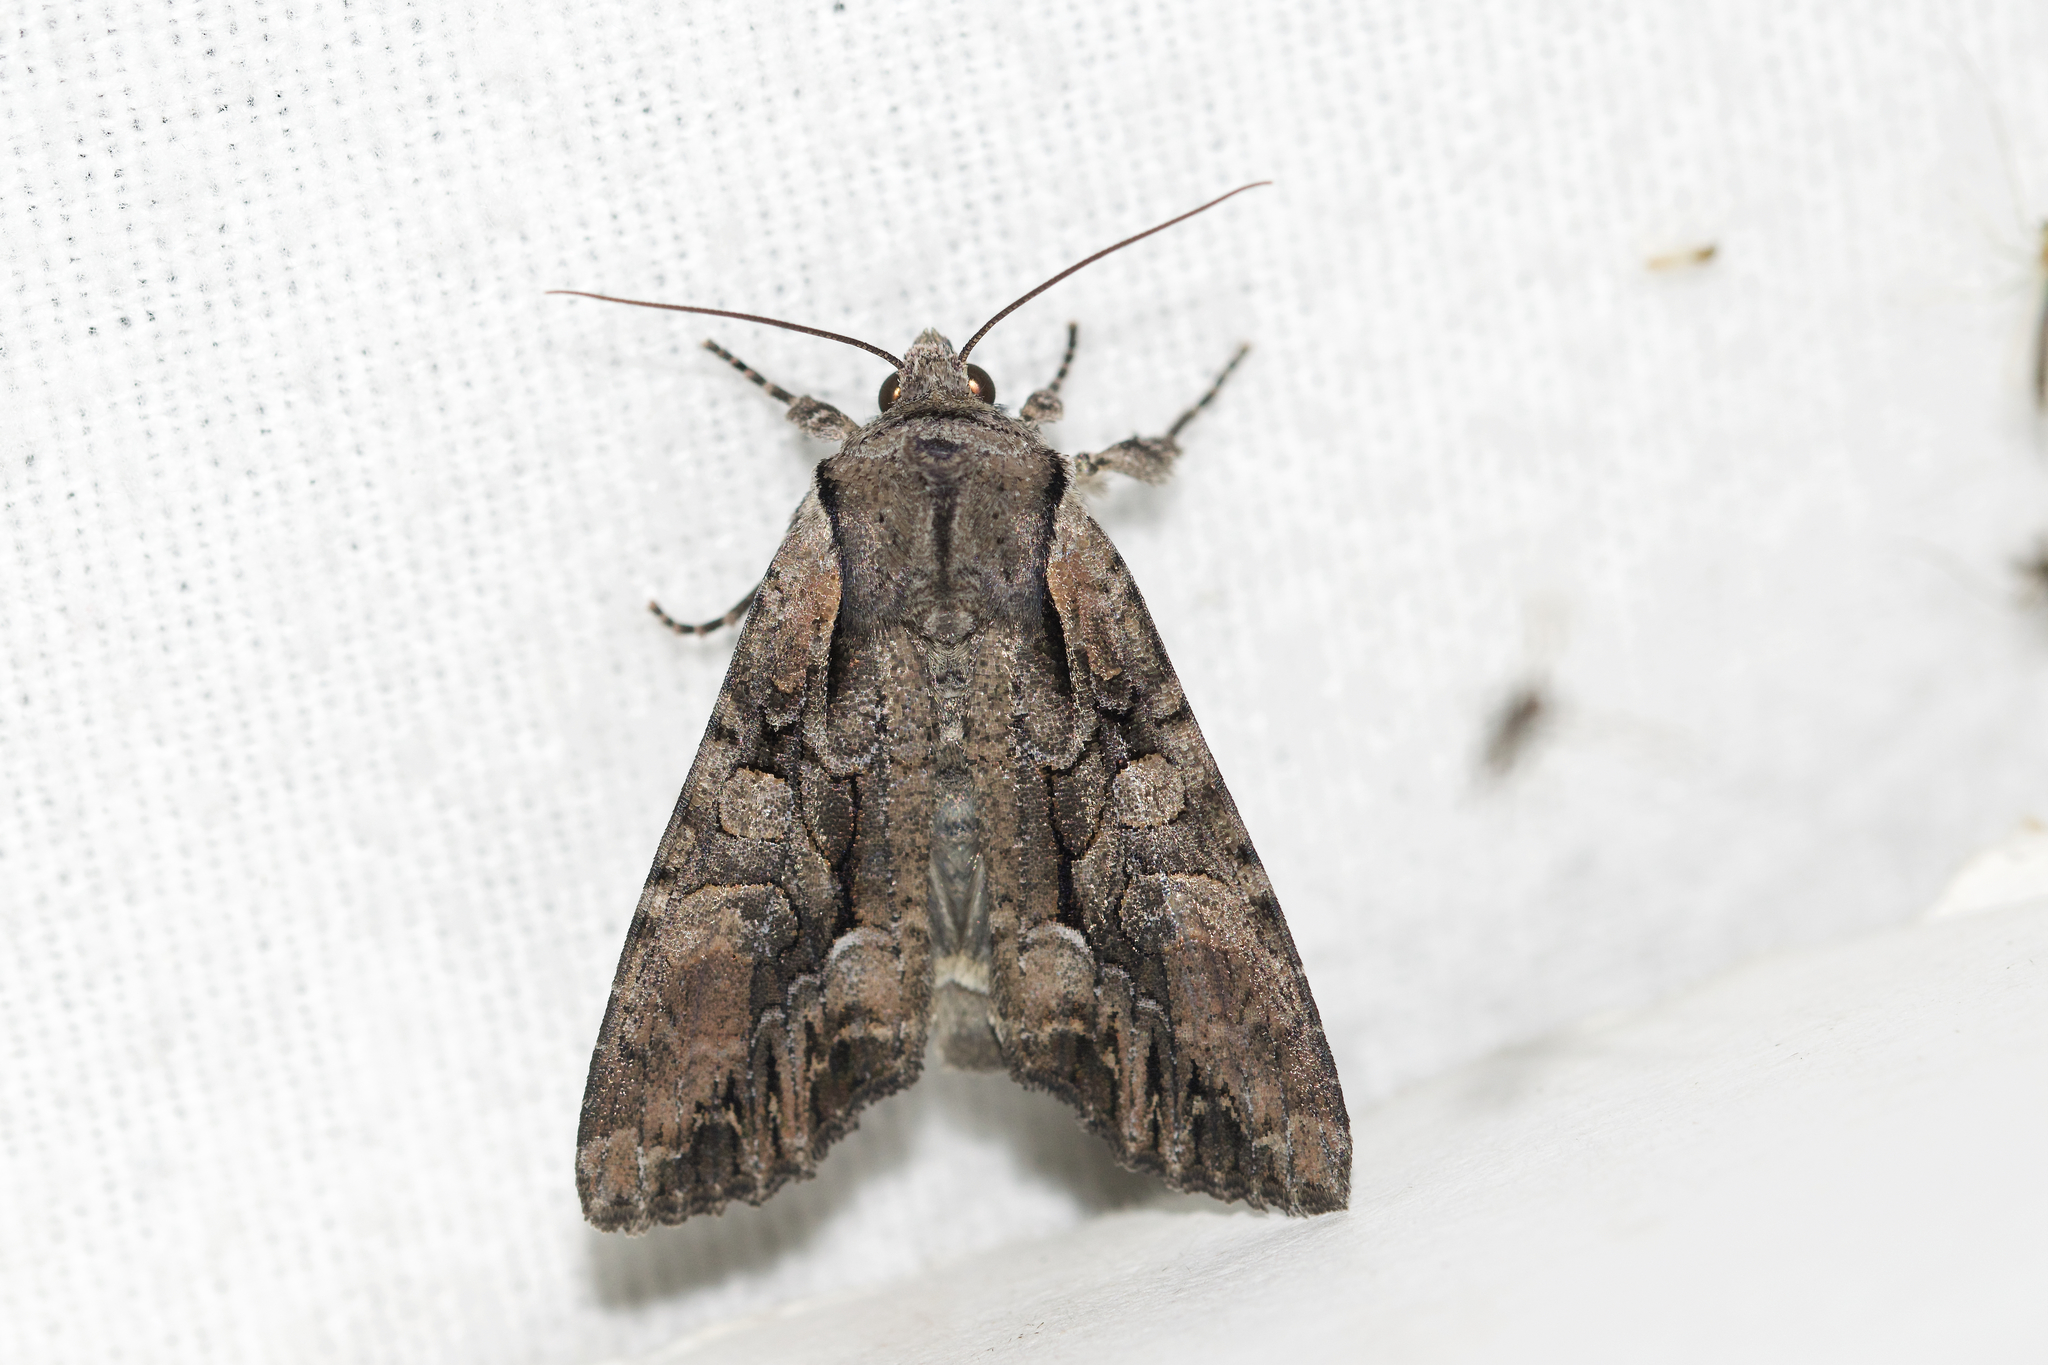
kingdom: Animalia
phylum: Arthropoda
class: Insecta
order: Lepidoptera
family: Noctuidae
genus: Lacanobia
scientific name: Lacanobia subjuncta
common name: Speckled cutworm moth
